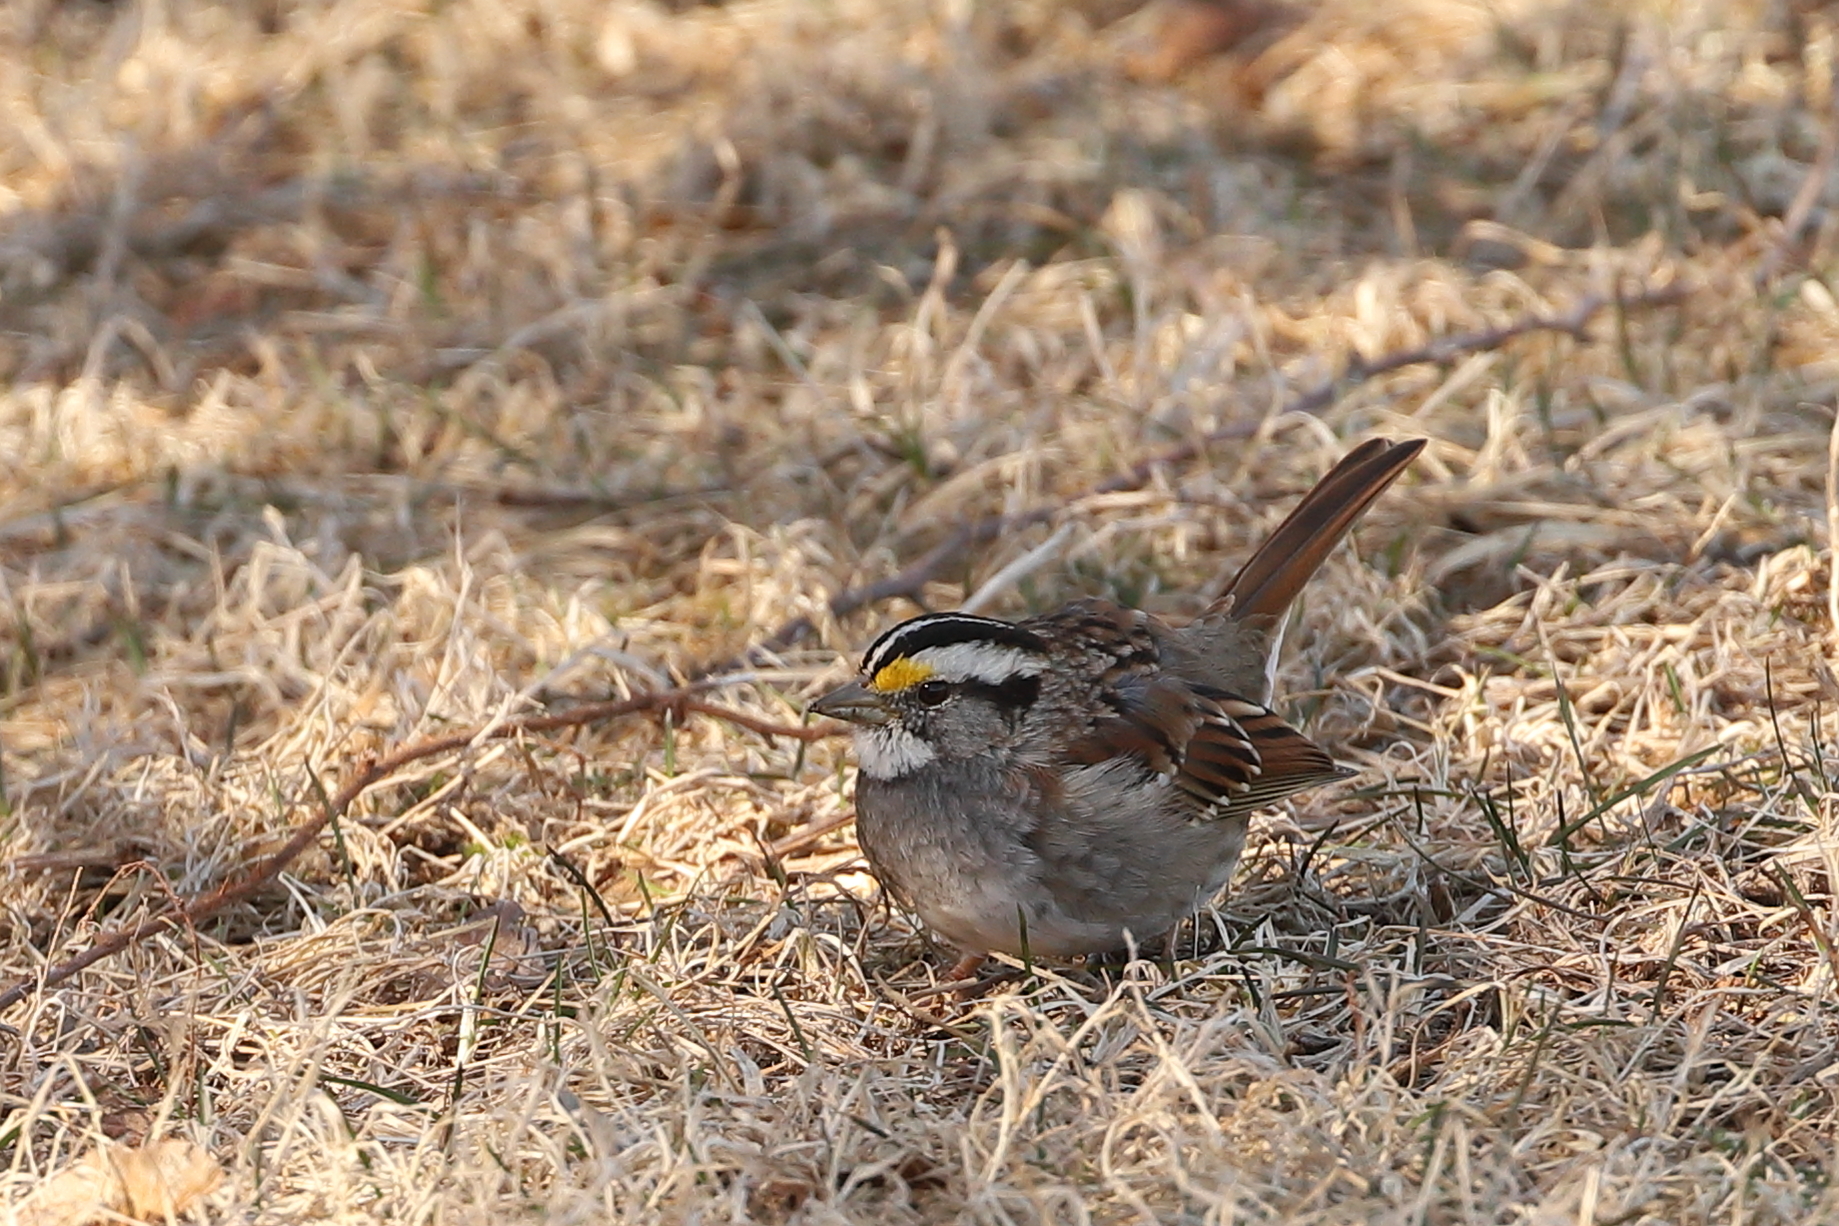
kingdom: Animalia
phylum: Chordata
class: Aves
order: Passeriformes
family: Passerellidae
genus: Zonotrichia
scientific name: Zonotrichia albicollis
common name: White-throated sparrow
